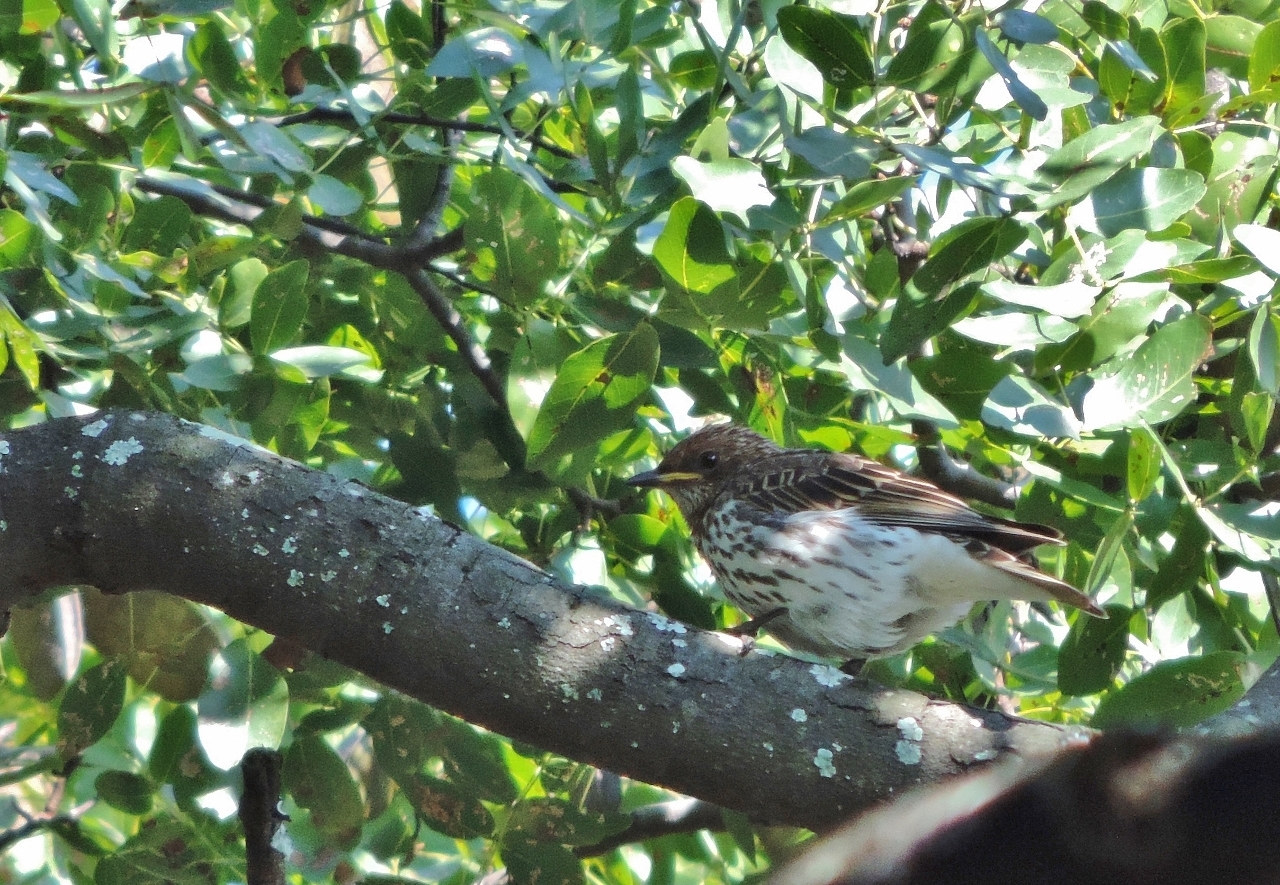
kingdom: Animalia
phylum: Chordata
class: Aves
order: Passeriformes
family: Sturnidae
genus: Cinnyricinclus
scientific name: Cinnyricinclus leucogaster
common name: Violet-backed starling
